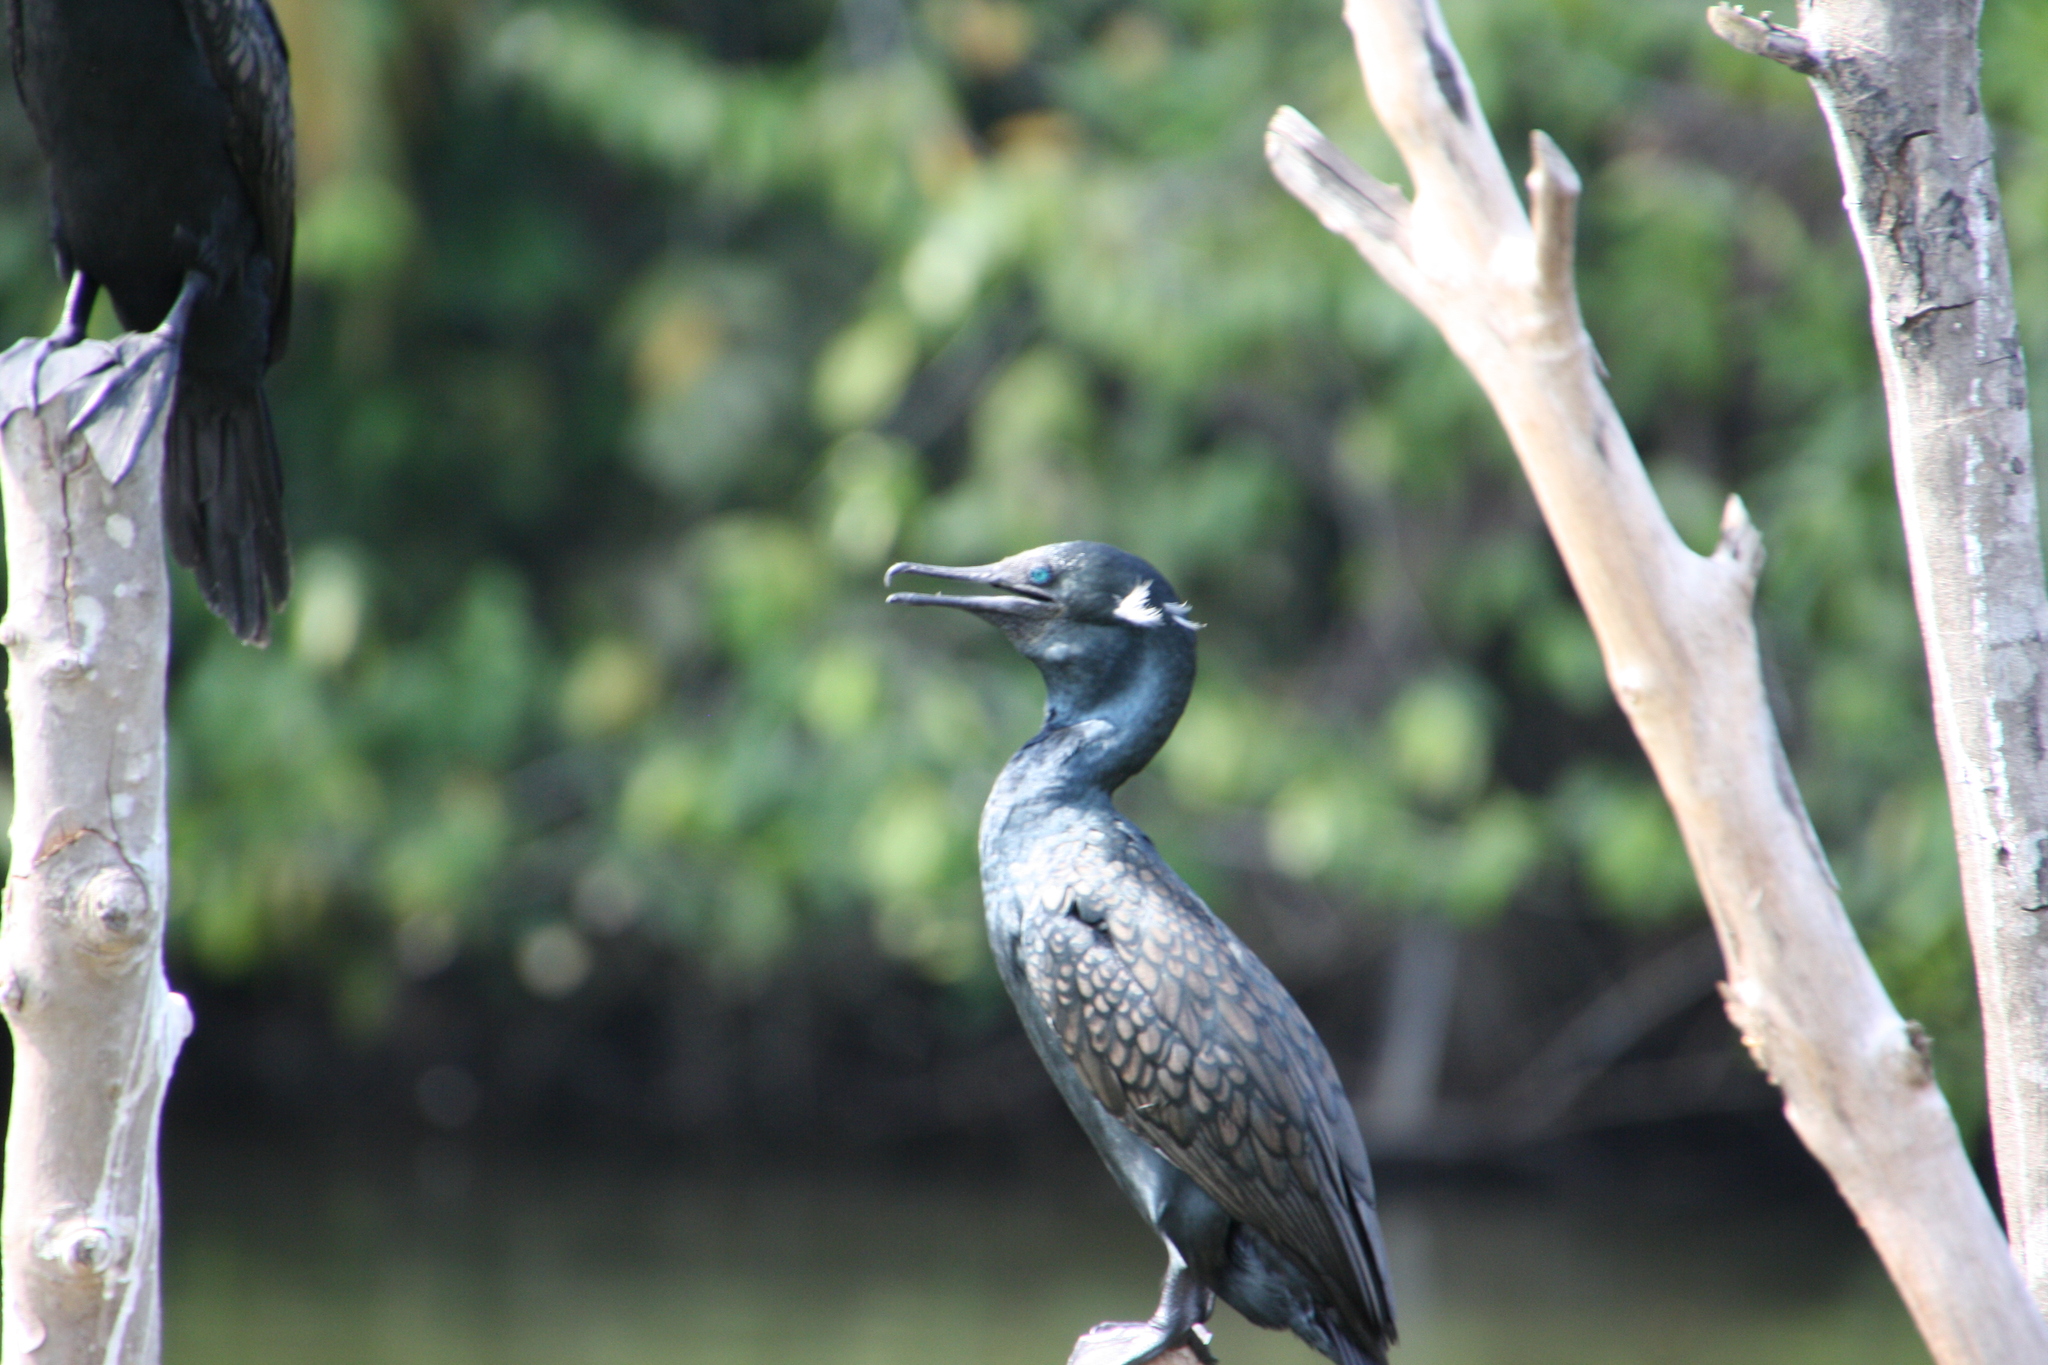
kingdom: Animalia
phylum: Chordata
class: Aves
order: Suliformes
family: Phalacrocoracidae
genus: Phalacrocorax
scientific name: Phalacrocorax fuscicollis
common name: Indian cormorant
